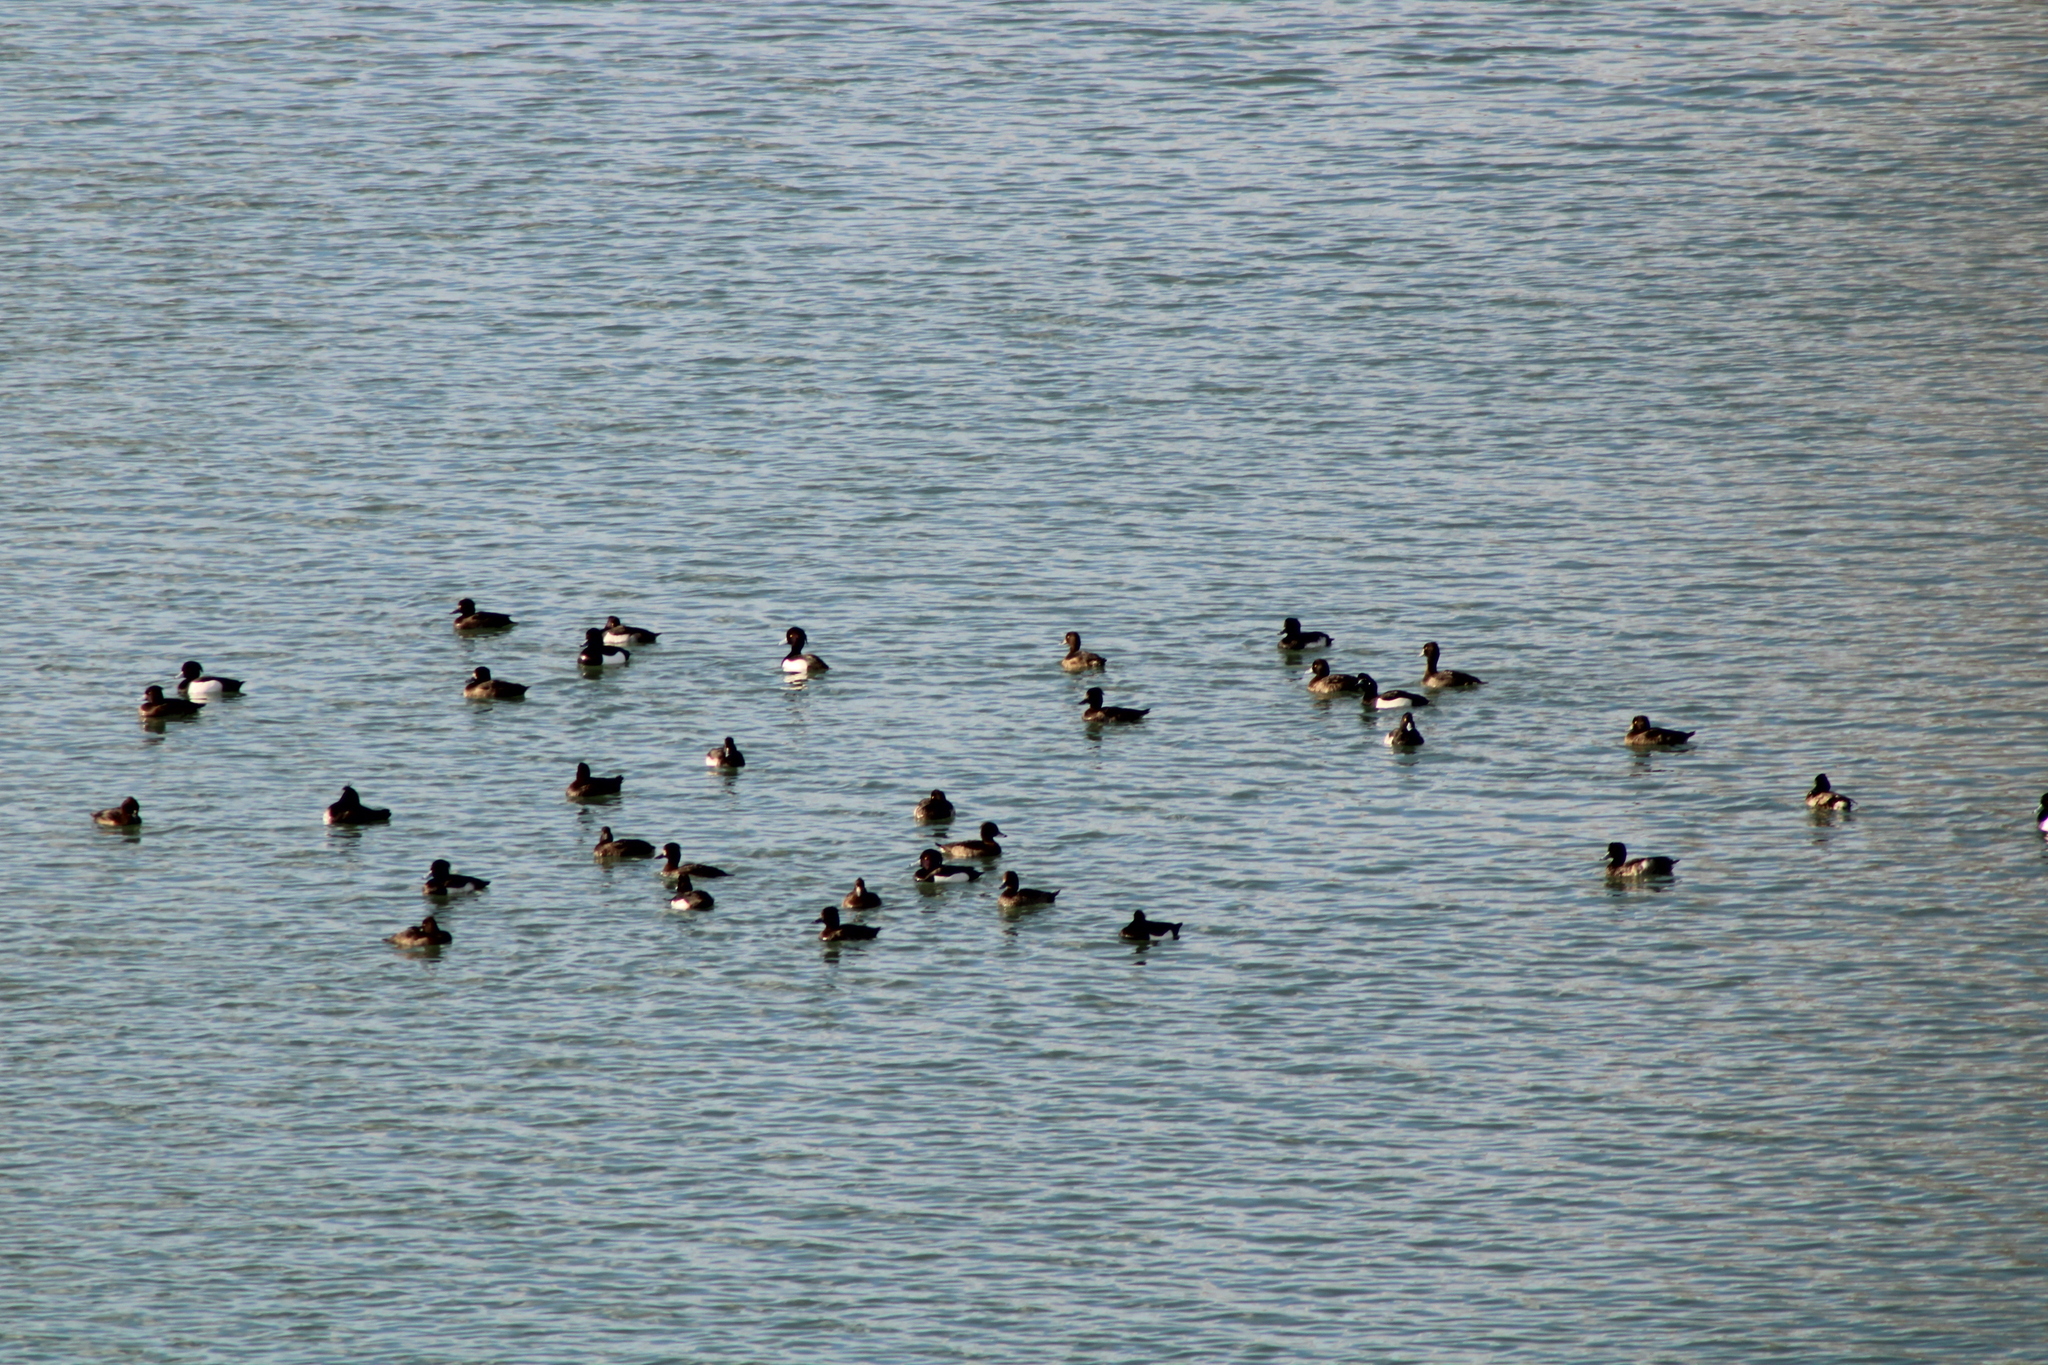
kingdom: Animalia
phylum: Chordata
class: Aves
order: Anseriformes
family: Anatidae
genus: Aythya
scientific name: Aythya fuligula
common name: Tufted duck
